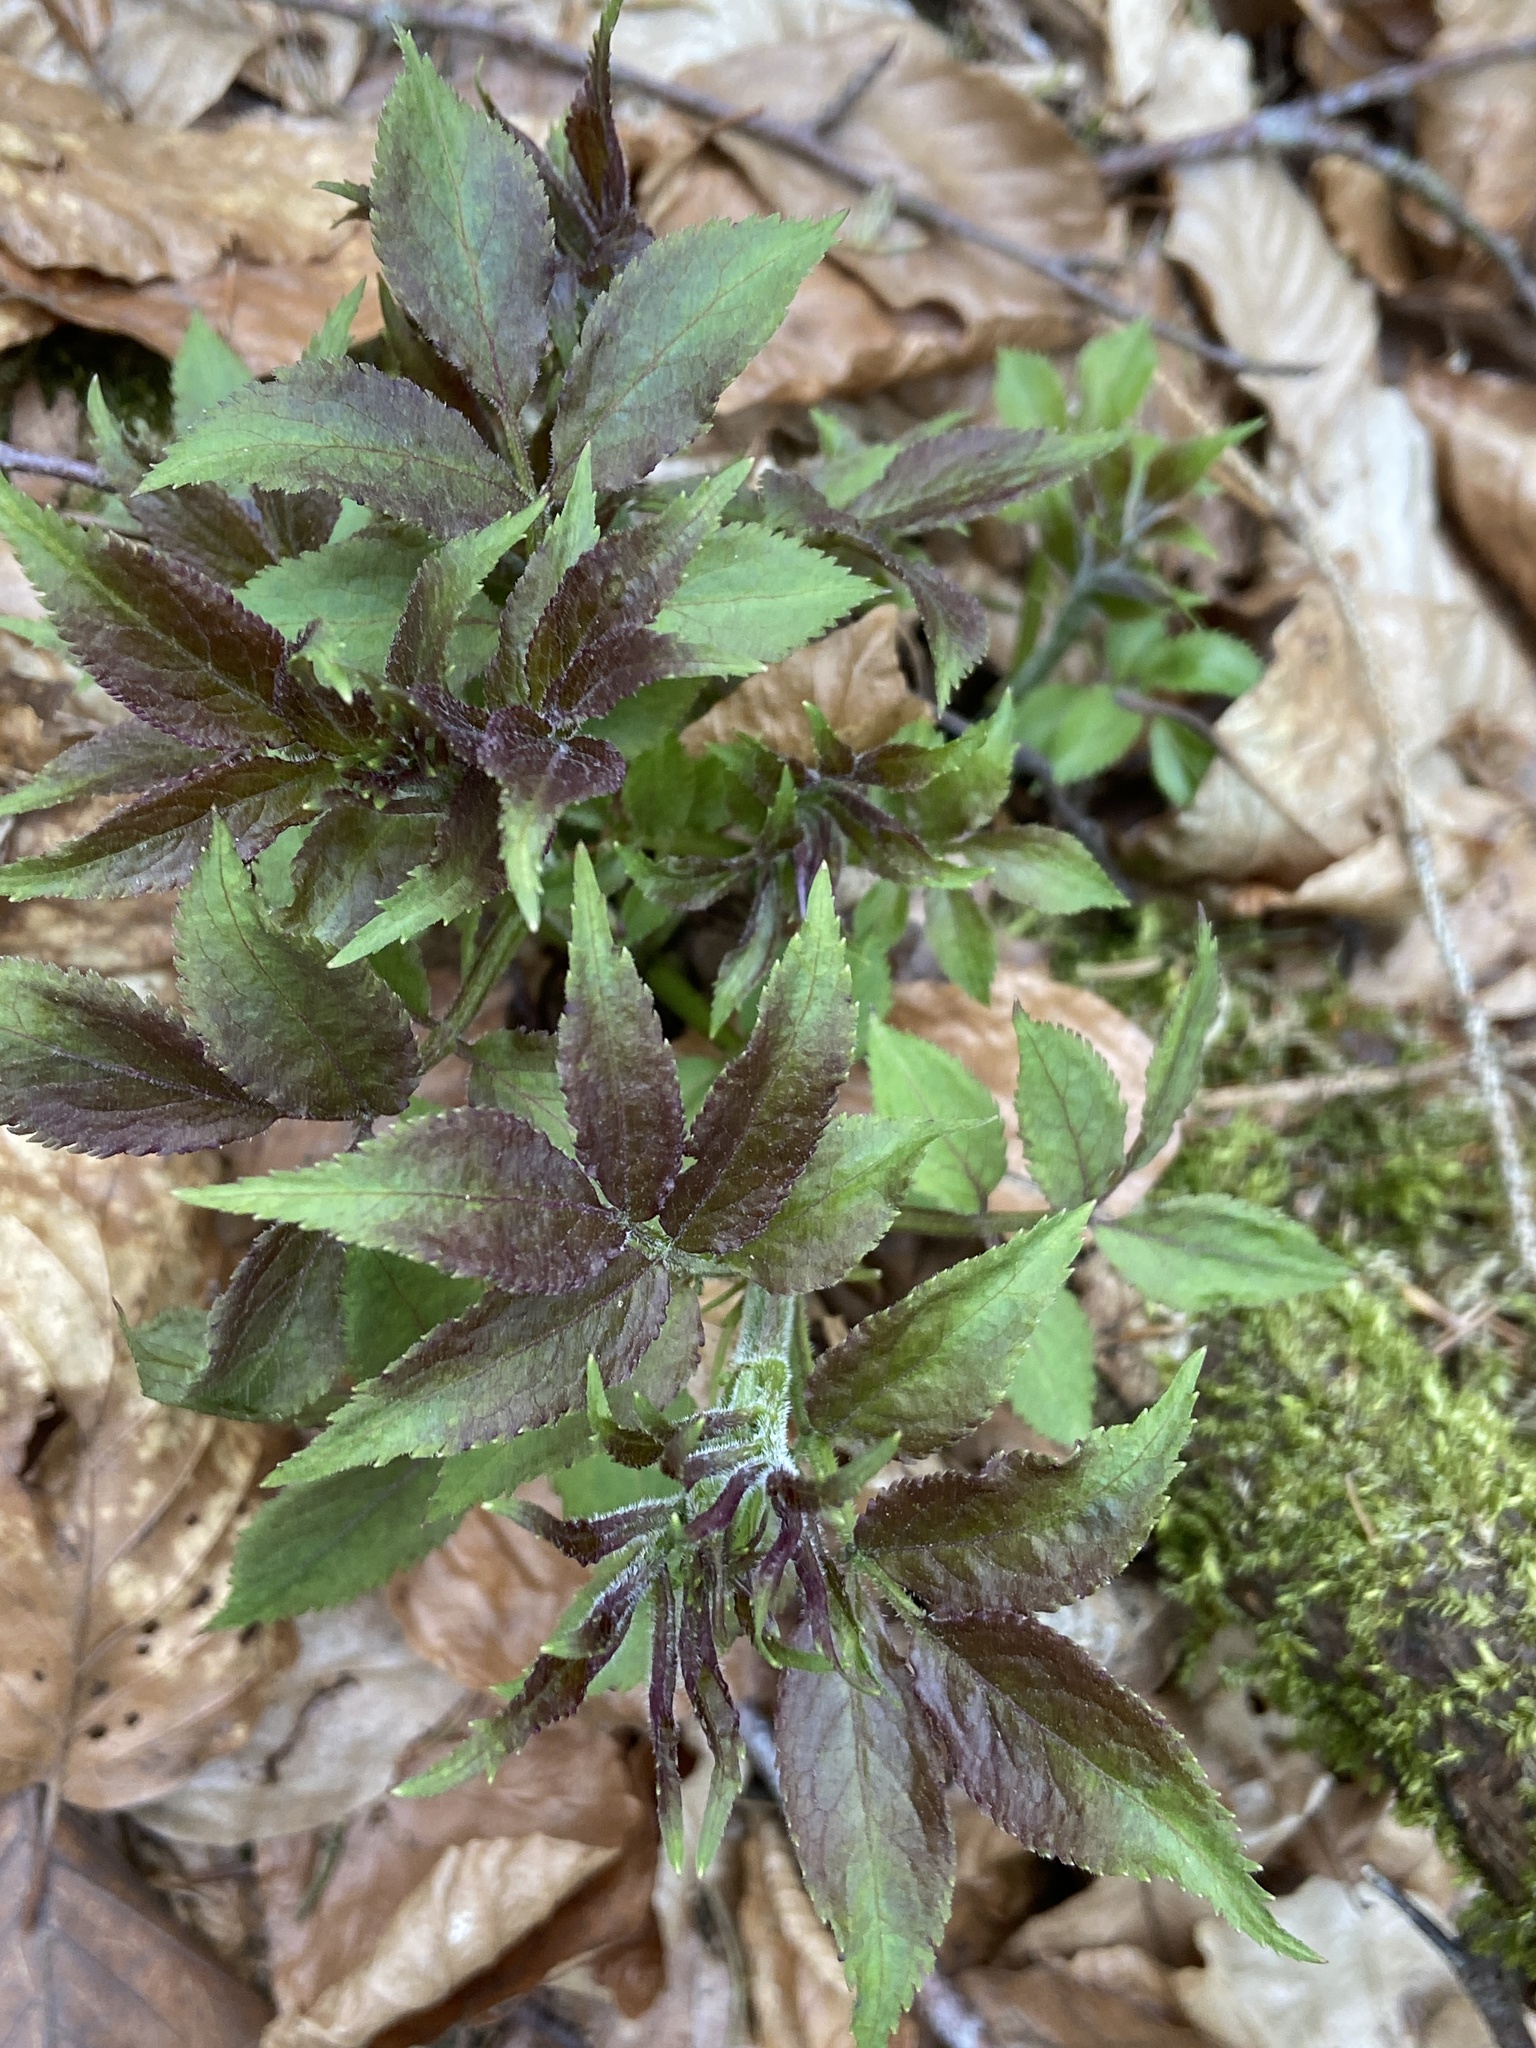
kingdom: Plantae
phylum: Tracheophyta
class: Magnoliopsida
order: Dipsacales
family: Viburnaceae
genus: Sambucus
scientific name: Sambucus racemosa
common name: Red-berried elder
